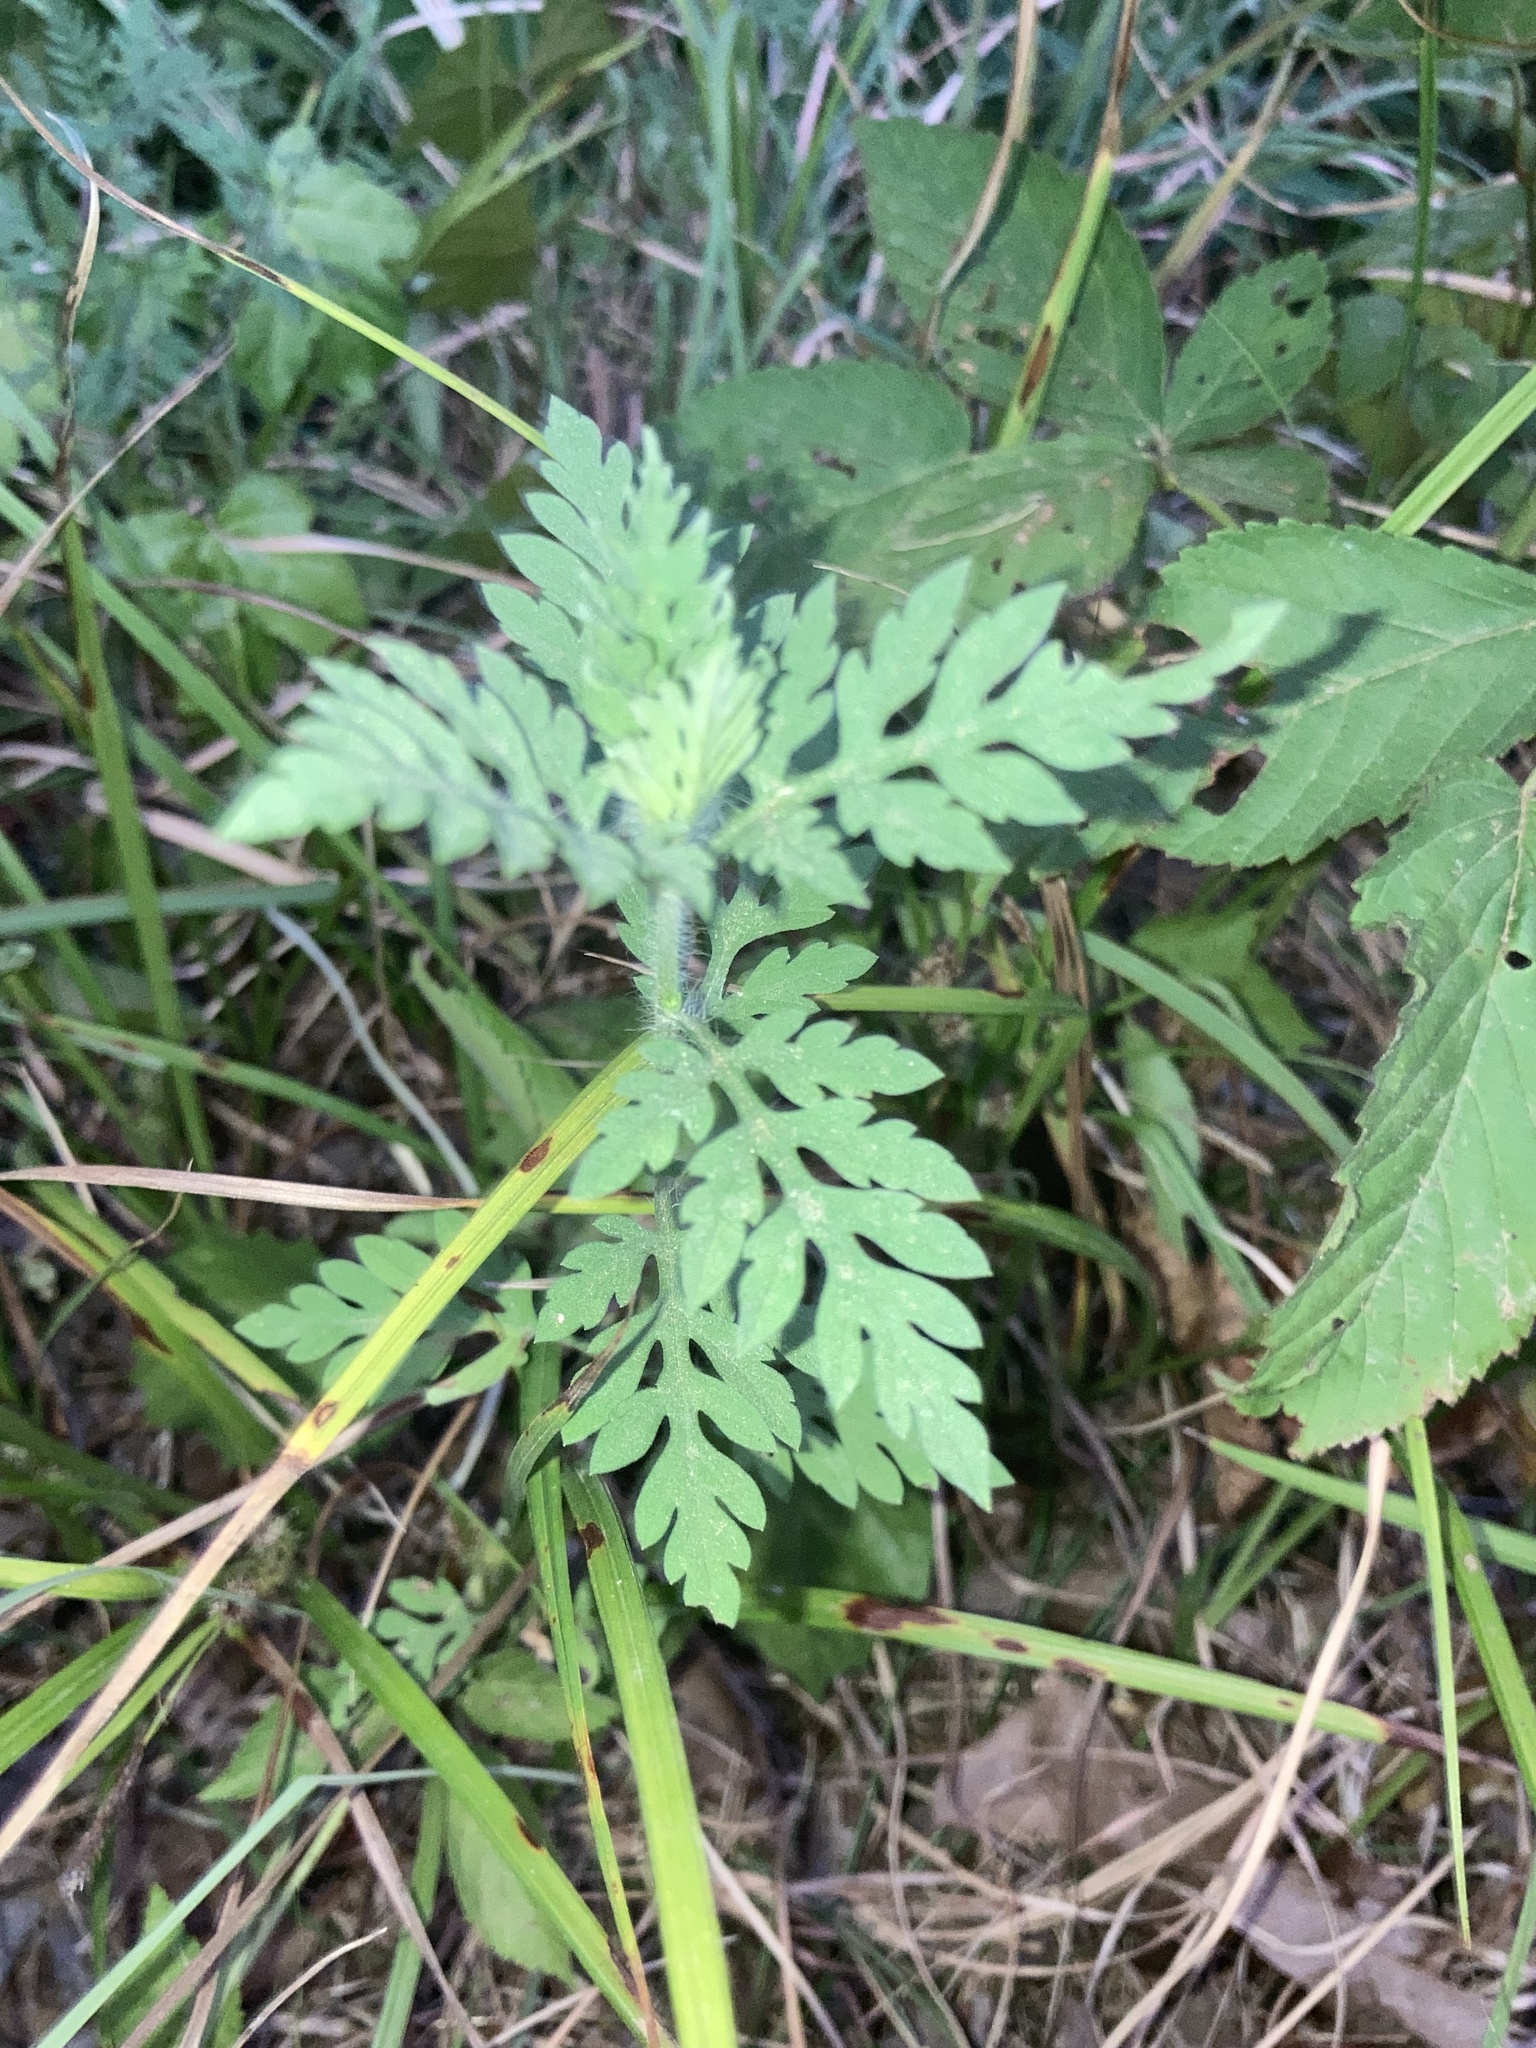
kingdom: Plantae
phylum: Tracheophyta
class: Magnoliopsida
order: Asterales
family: Asteraceae
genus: Ambrosia
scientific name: Ambrosia artemisiifolia
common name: Annual ragweed
